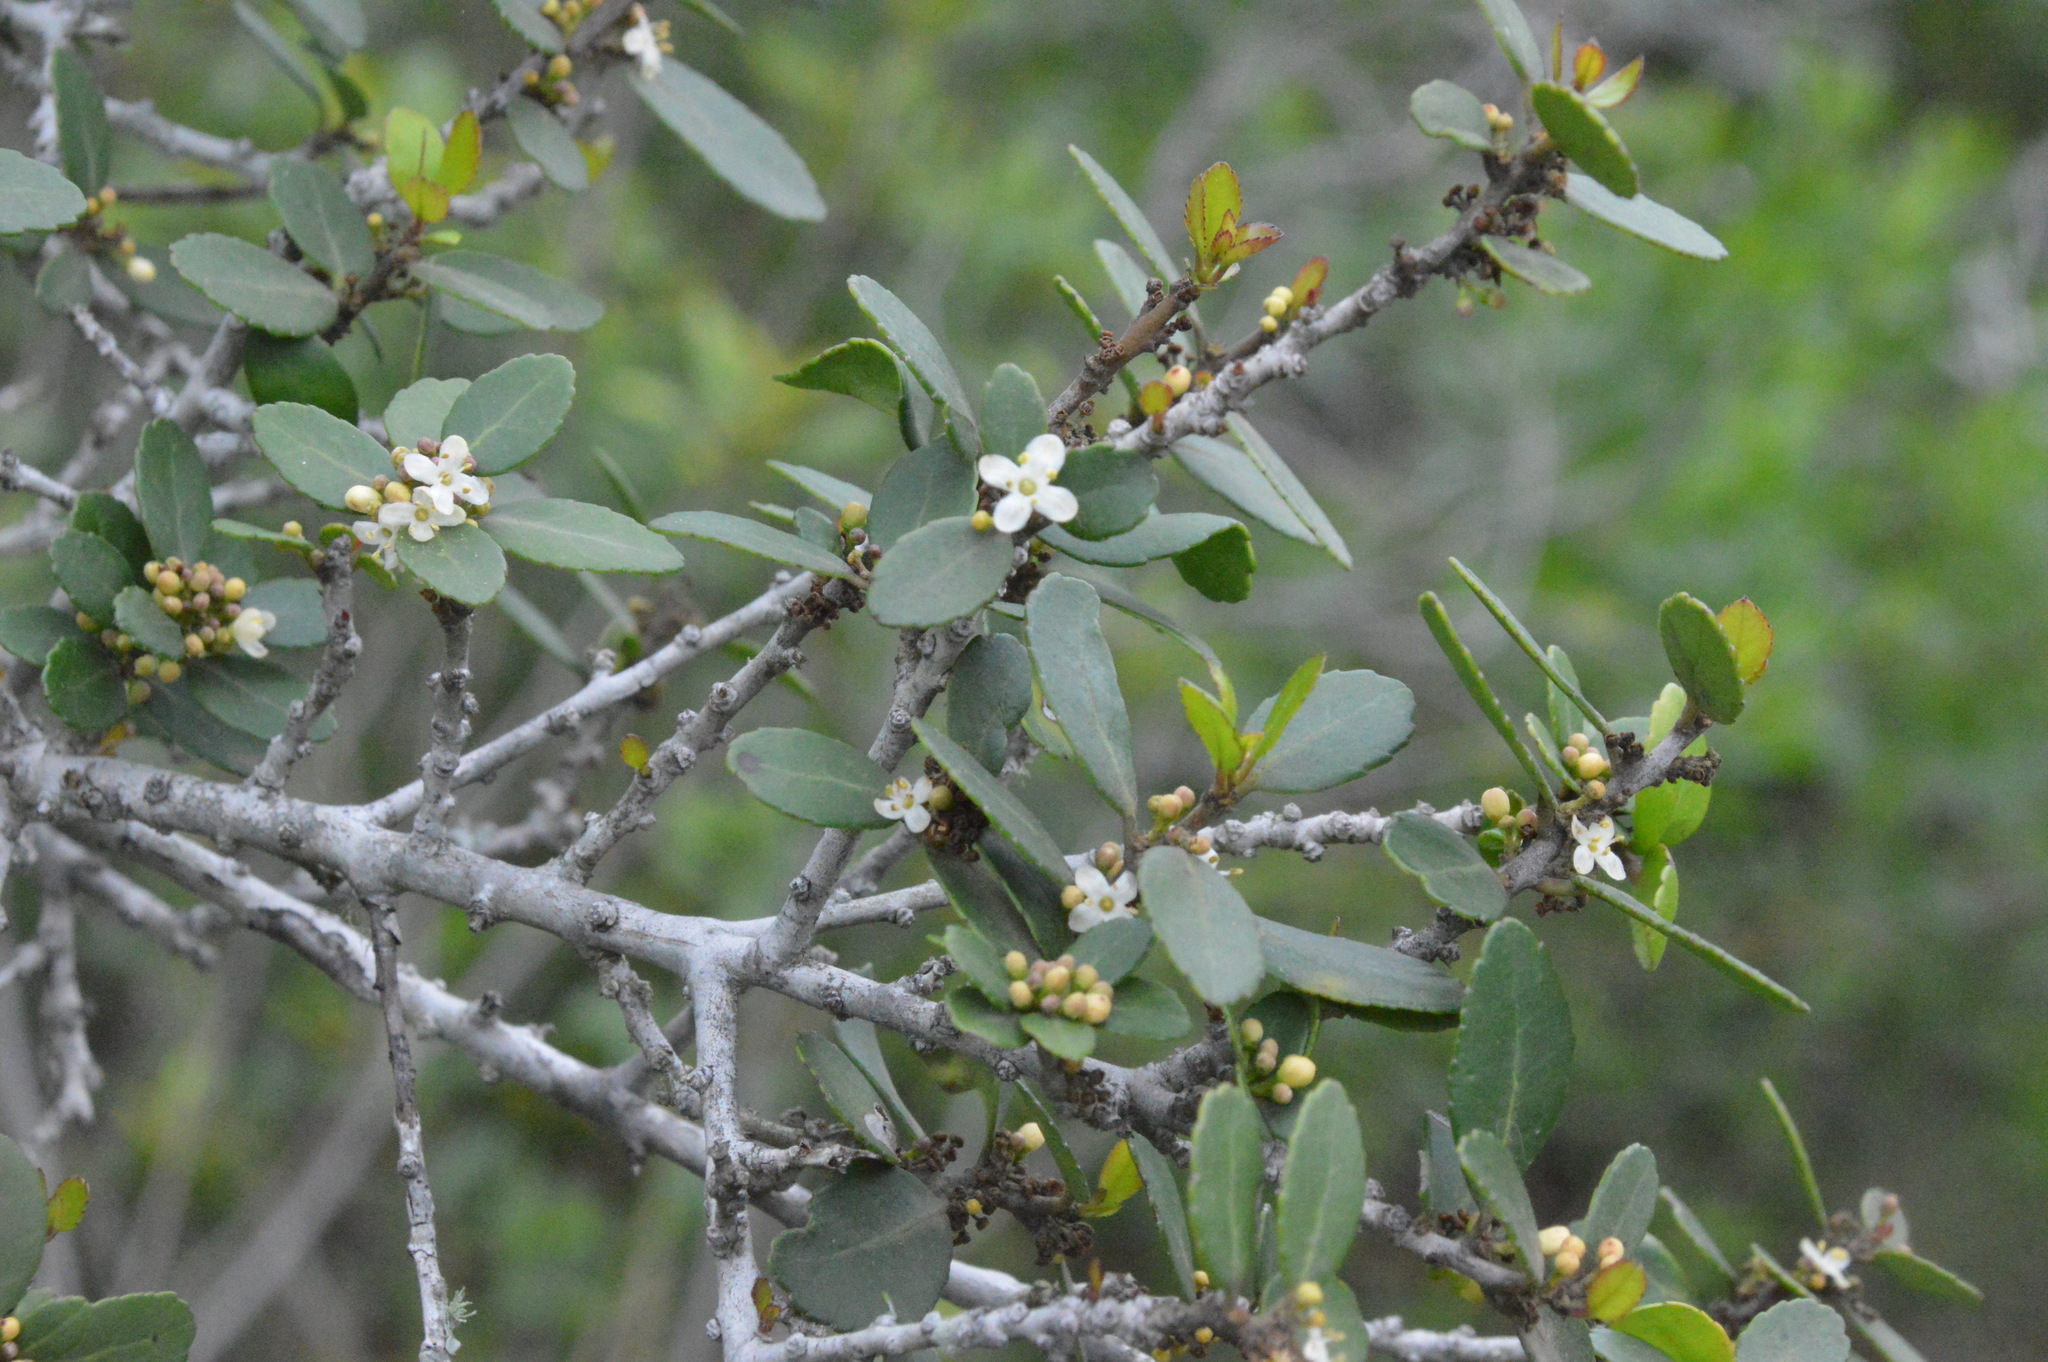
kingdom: Plantae
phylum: Tracheophyta
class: Magnoliopsida
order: Aquifoliales
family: Aquifoliaceae
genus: Ilex
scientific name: Ilex vomitoria
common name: Yaupon holly
